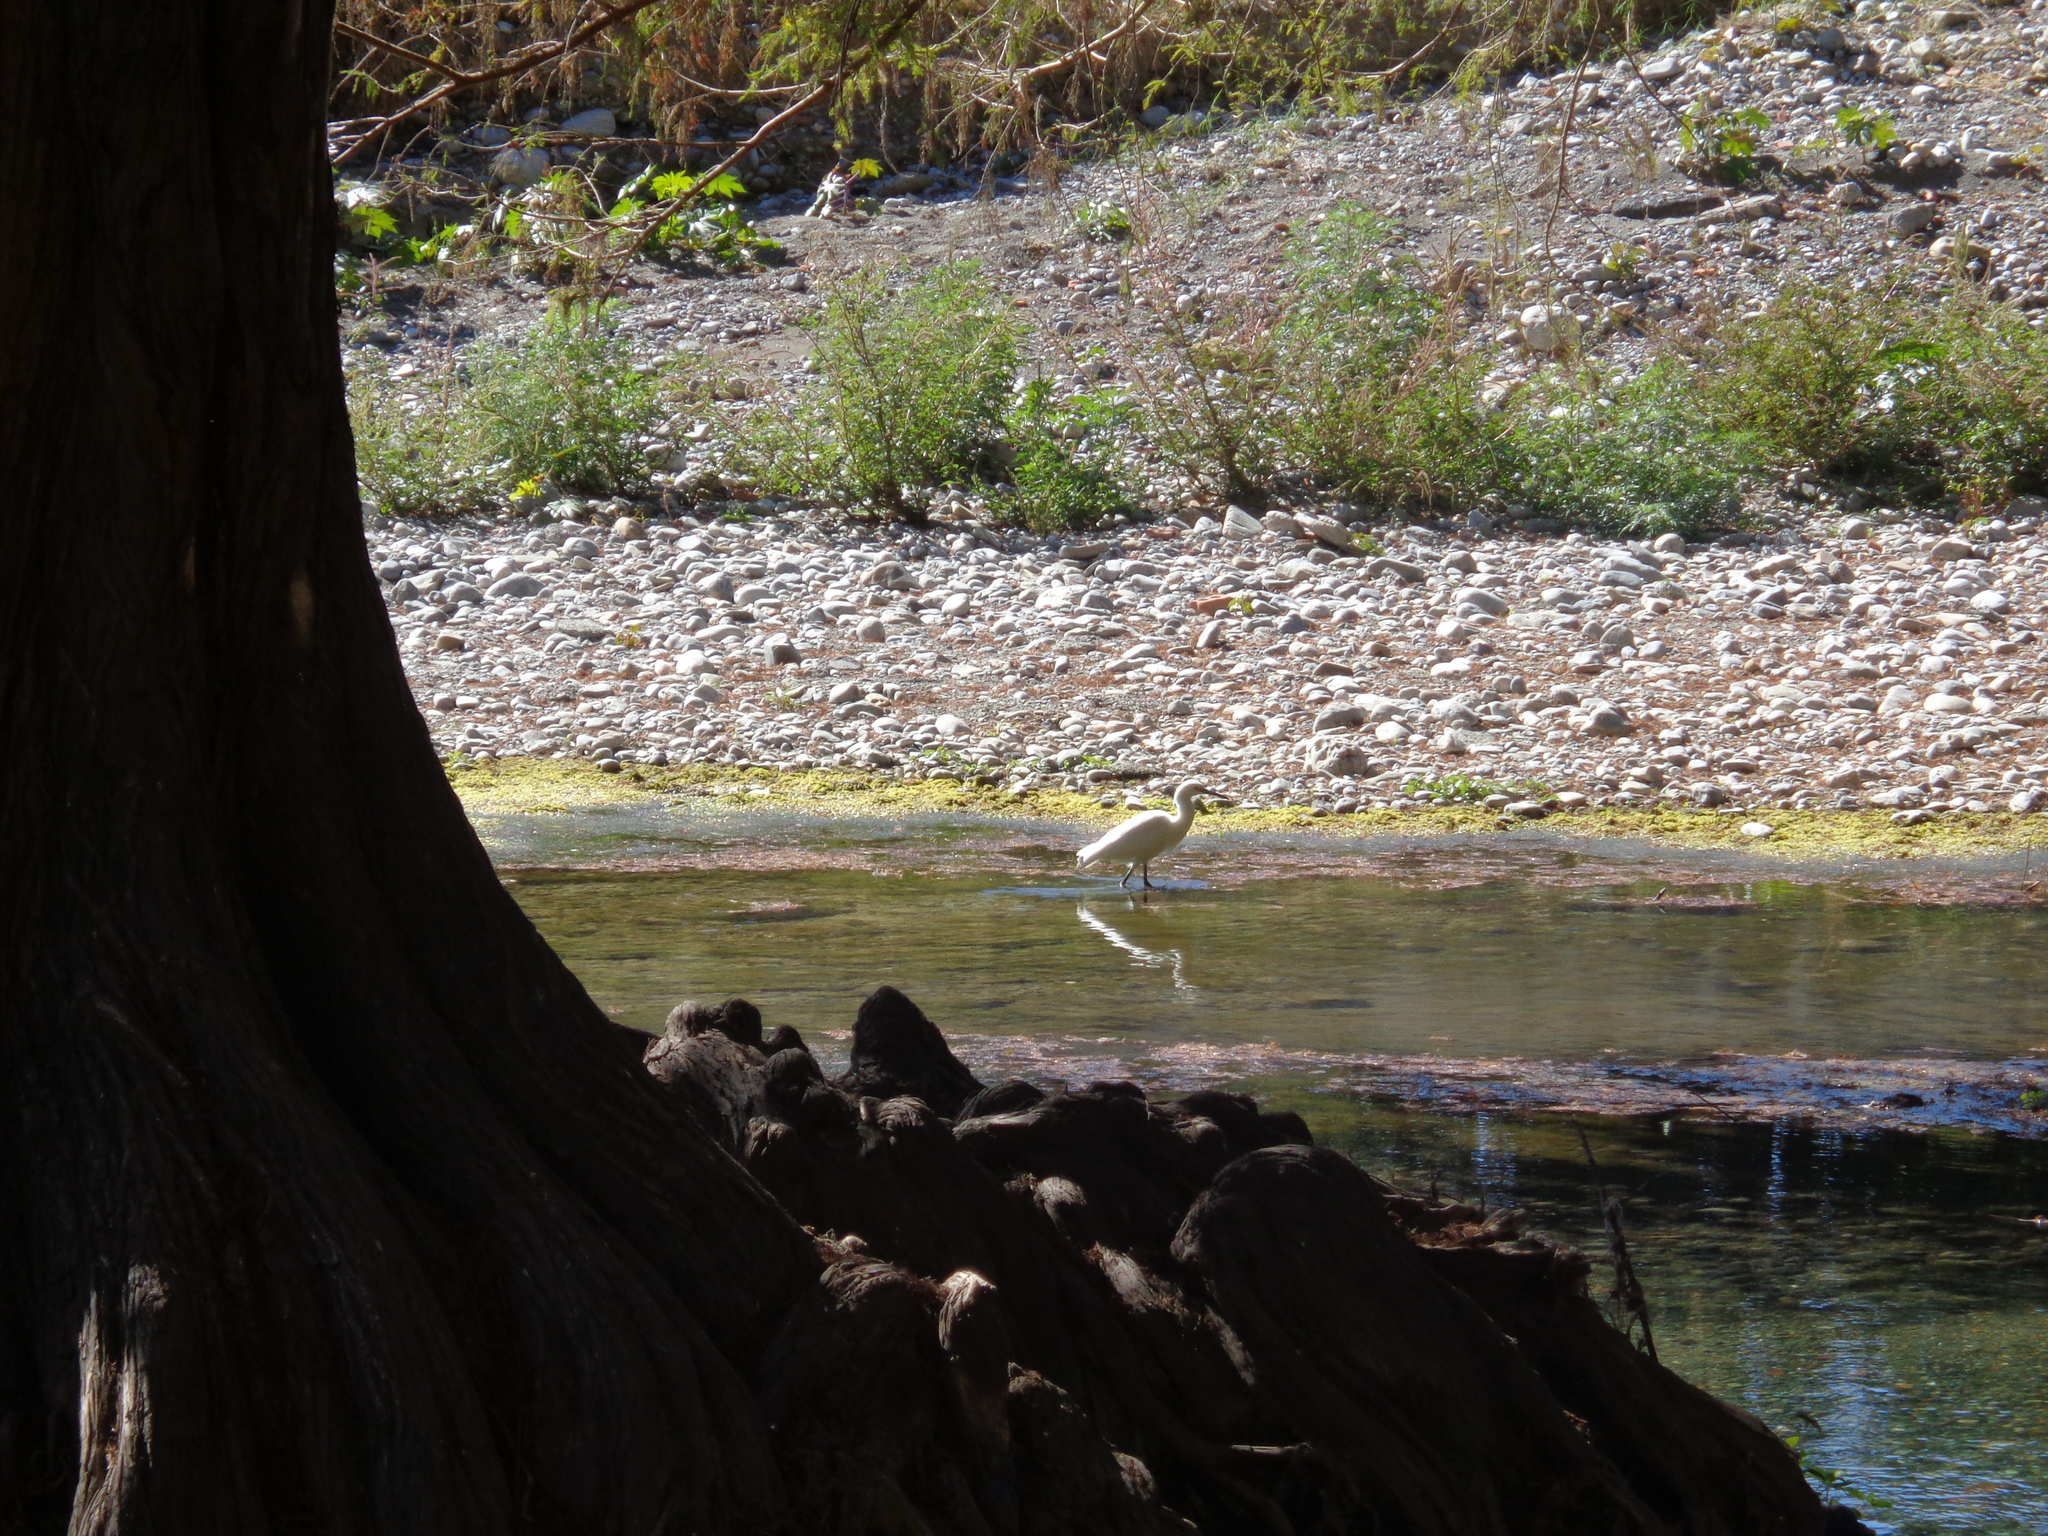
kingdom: Animalia
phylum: Chordata
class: Aves
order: Pelecaniformes
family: Ardeidae
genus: Egretta
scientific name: Egretta thula
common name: Snowy egret
